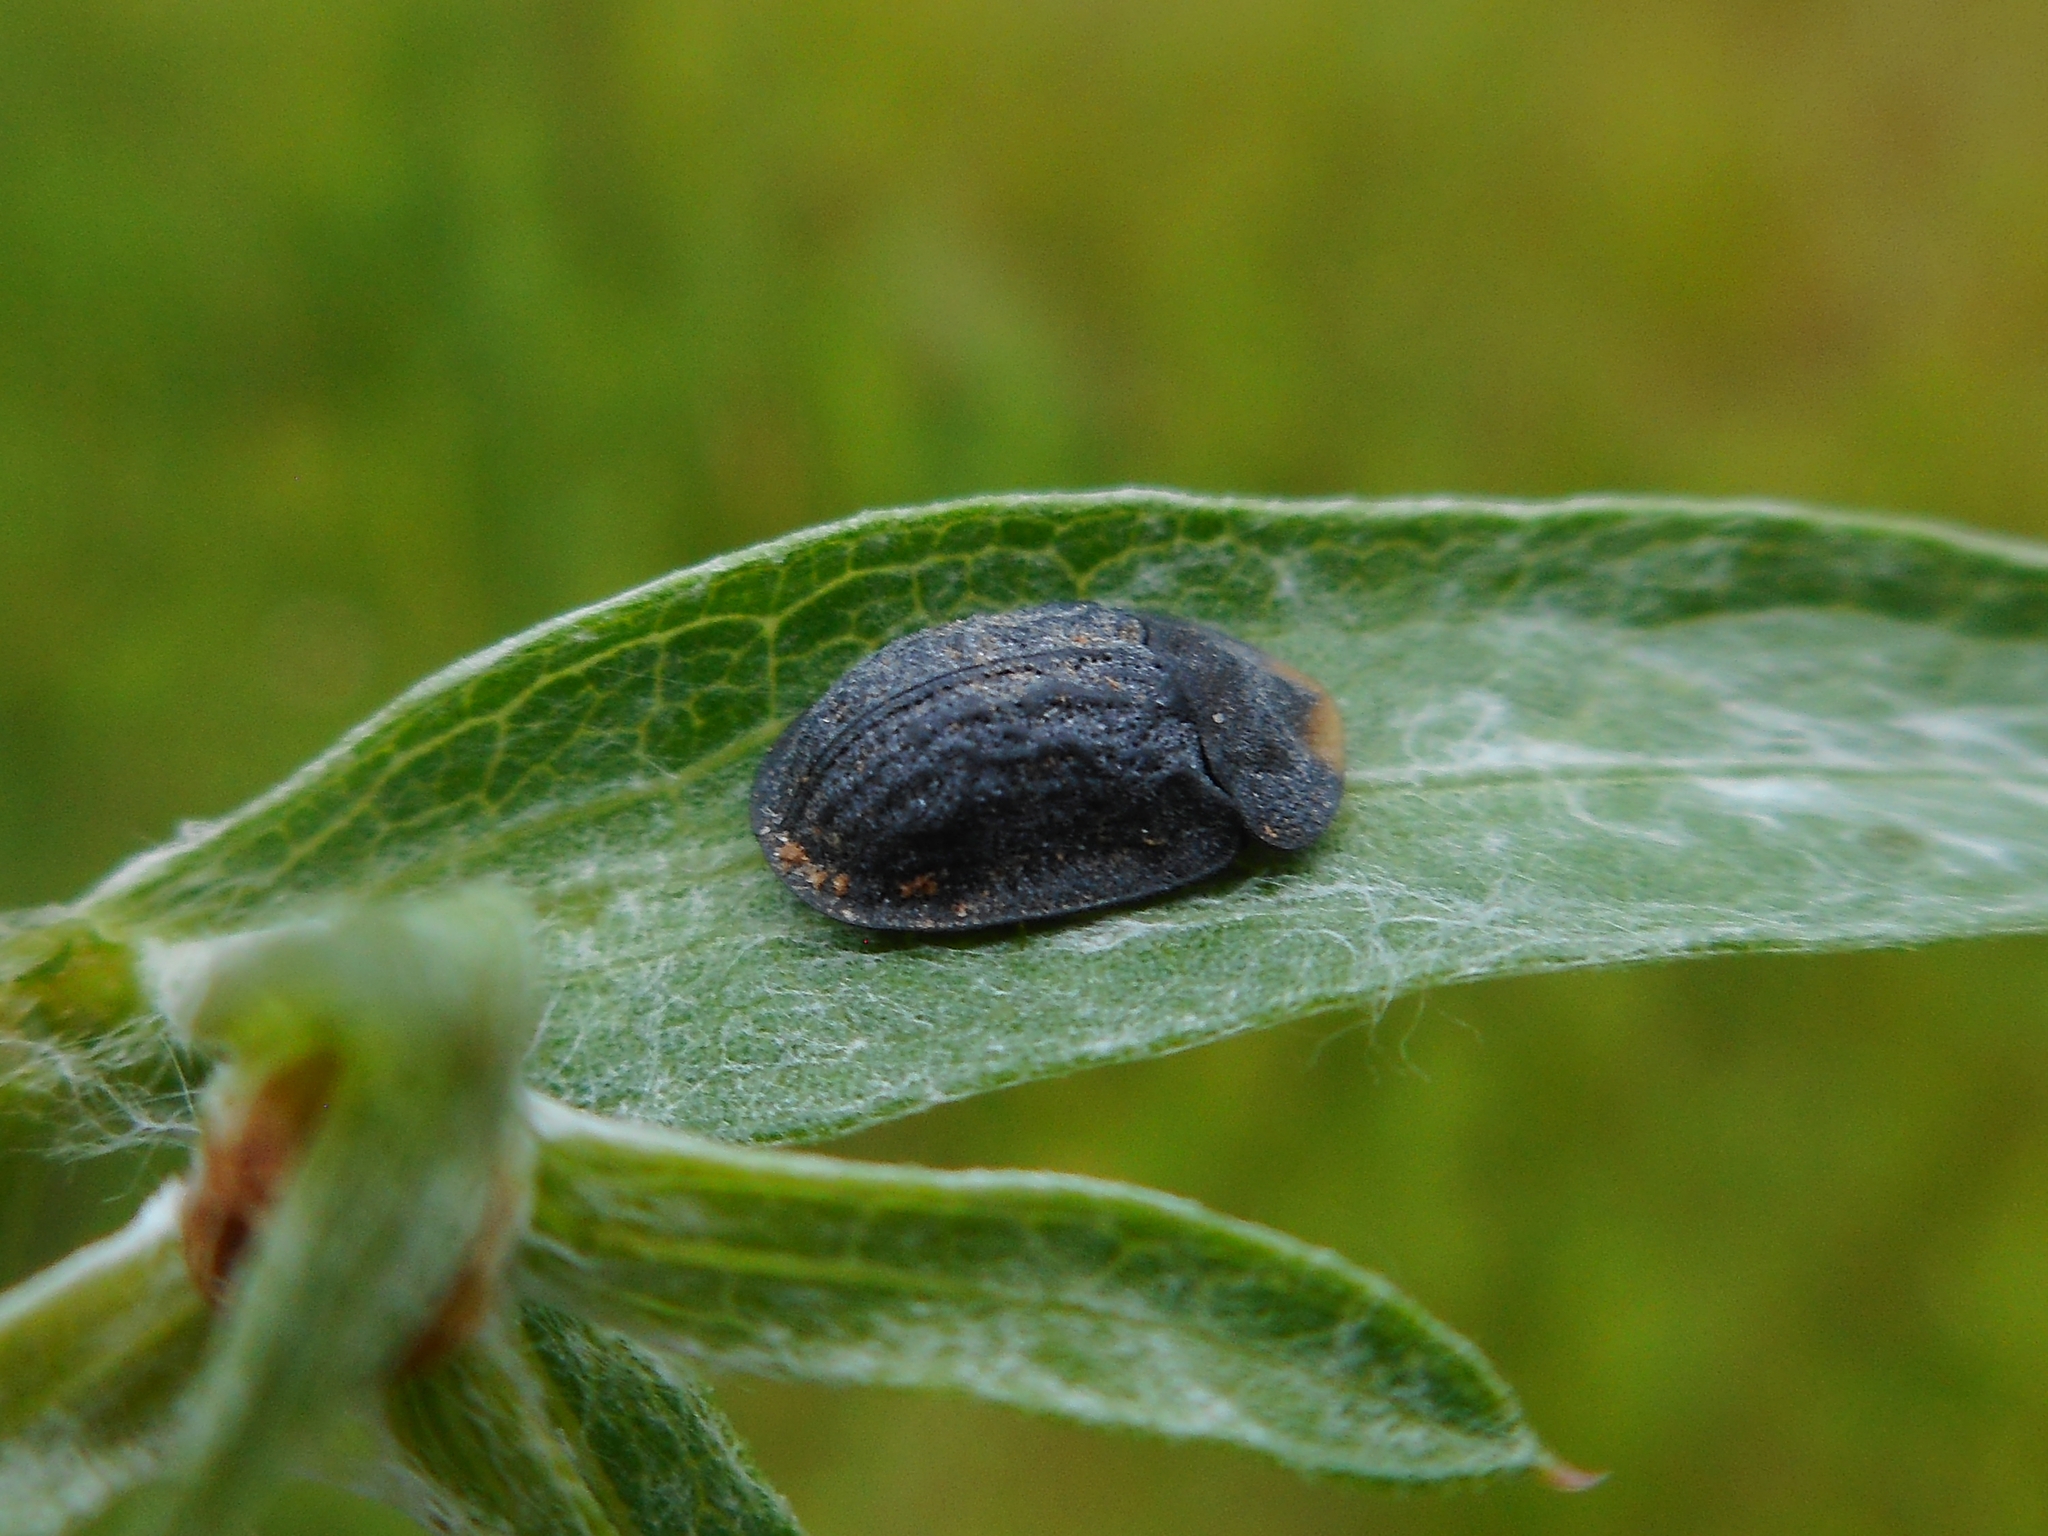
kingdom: Animalia
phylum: Arthropoda
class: Insecta
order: Coleoptera
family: Chrysomelidae
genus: Cassida
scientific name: Cassida atrata
